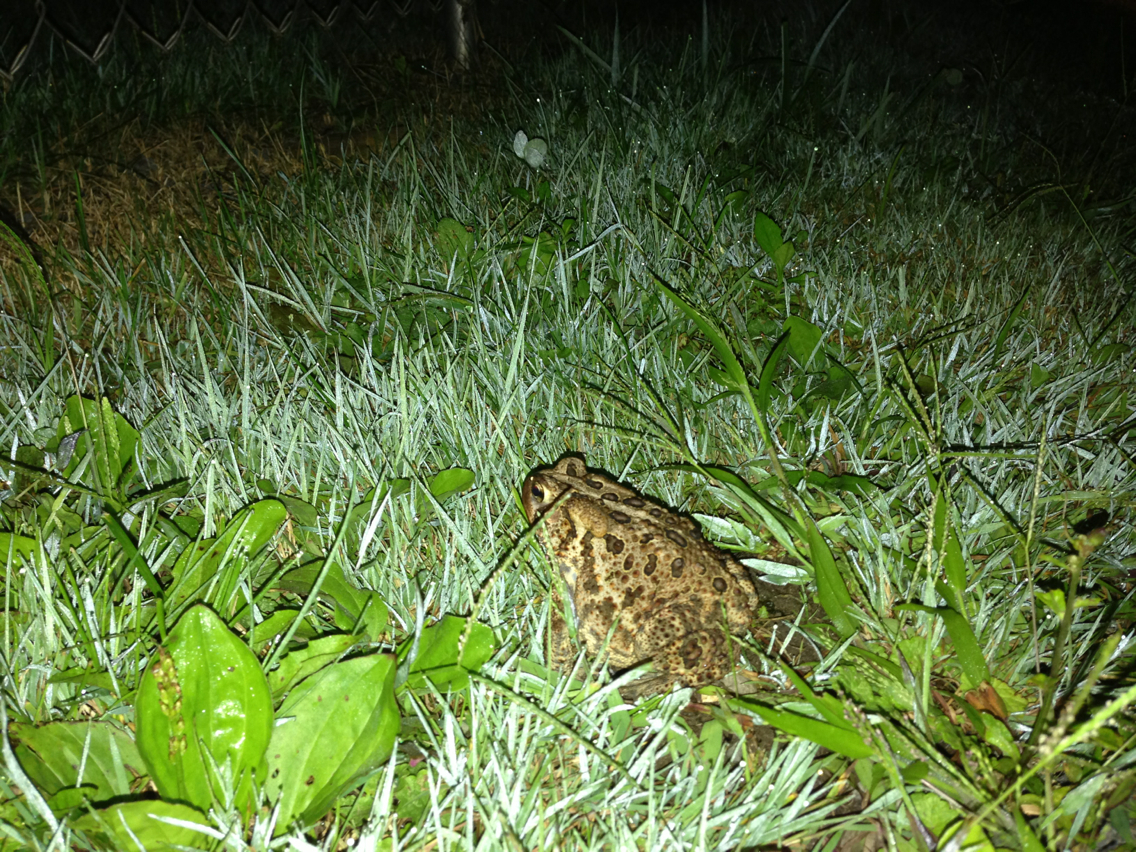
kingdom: Animalia
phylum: Chordata
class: Amphibia
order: Anura
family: Bufonidae
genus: Anaxyrus
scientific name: Anaxyrus americanus
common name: American toad
